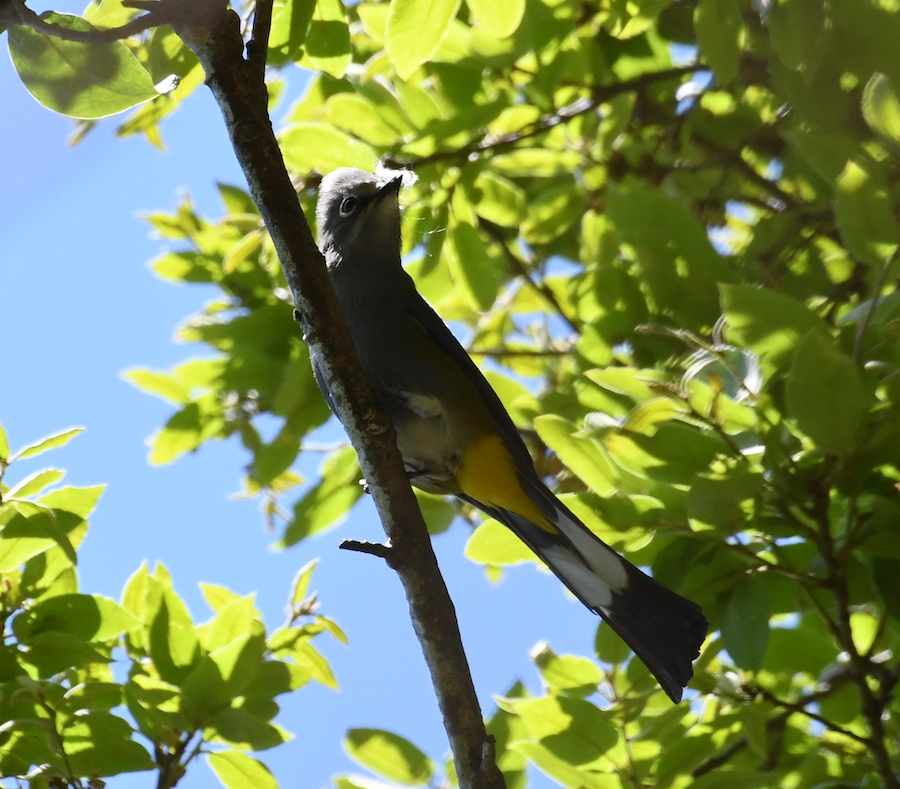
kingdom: Animalia
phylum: Chordata
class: Aves
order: Passeriformes
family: Ptilogonatidae
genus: Ptilogonys
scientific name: Ptilogonys cinereus
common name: Gray silky-flycatcher
